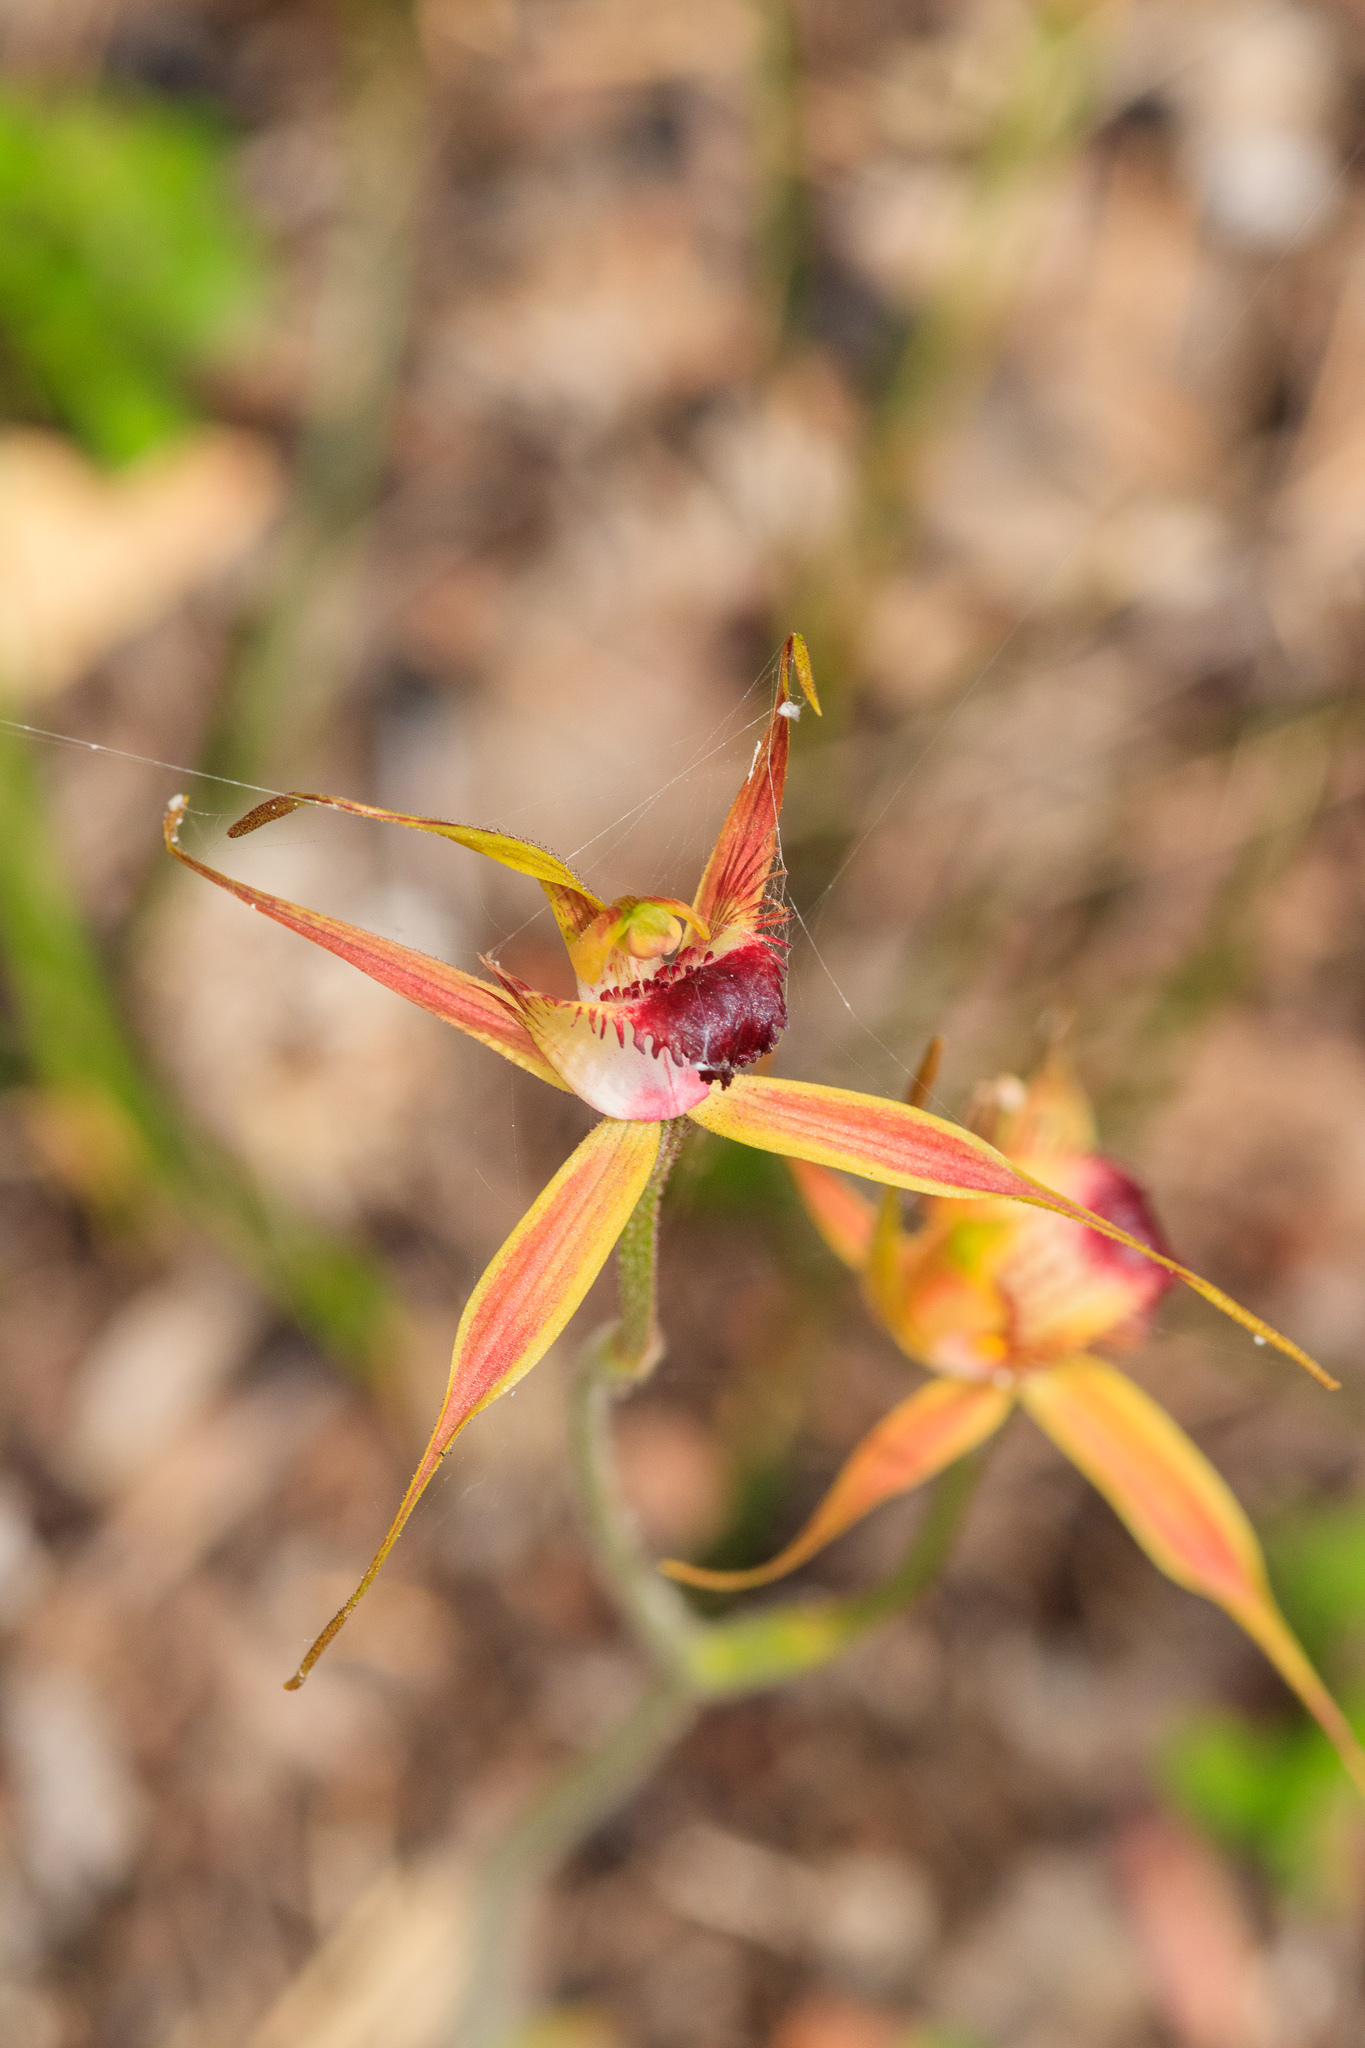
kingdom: Plantae
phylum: Tracheophyta
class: Liliopsida
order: Asparagales
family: Orchidaceae
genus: Caladenia
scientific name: Caladenia brownii
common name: Kari spider orchid
